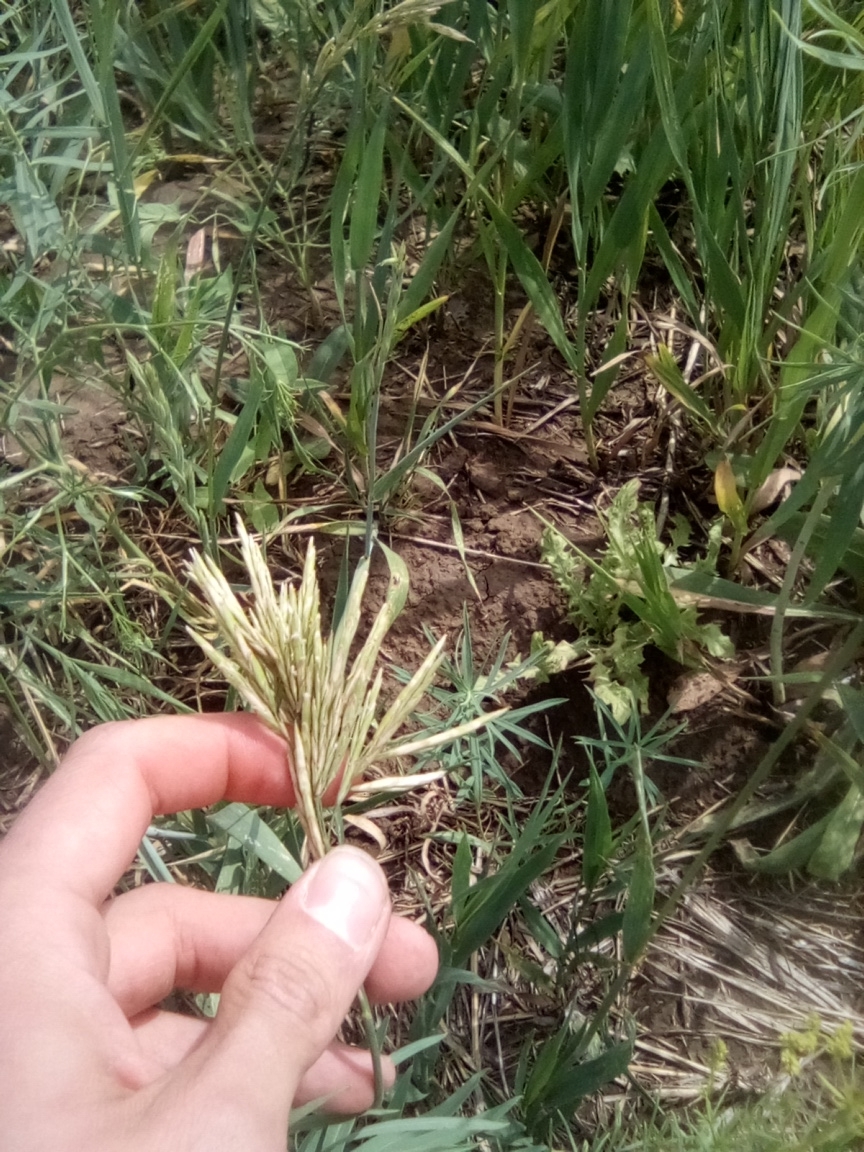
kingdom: Plantae
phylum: Tracheophyta
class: Liliopsida
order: Poales
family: Poaceae
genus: Bromus
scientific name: Bromus inermis
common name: Smooth brome
